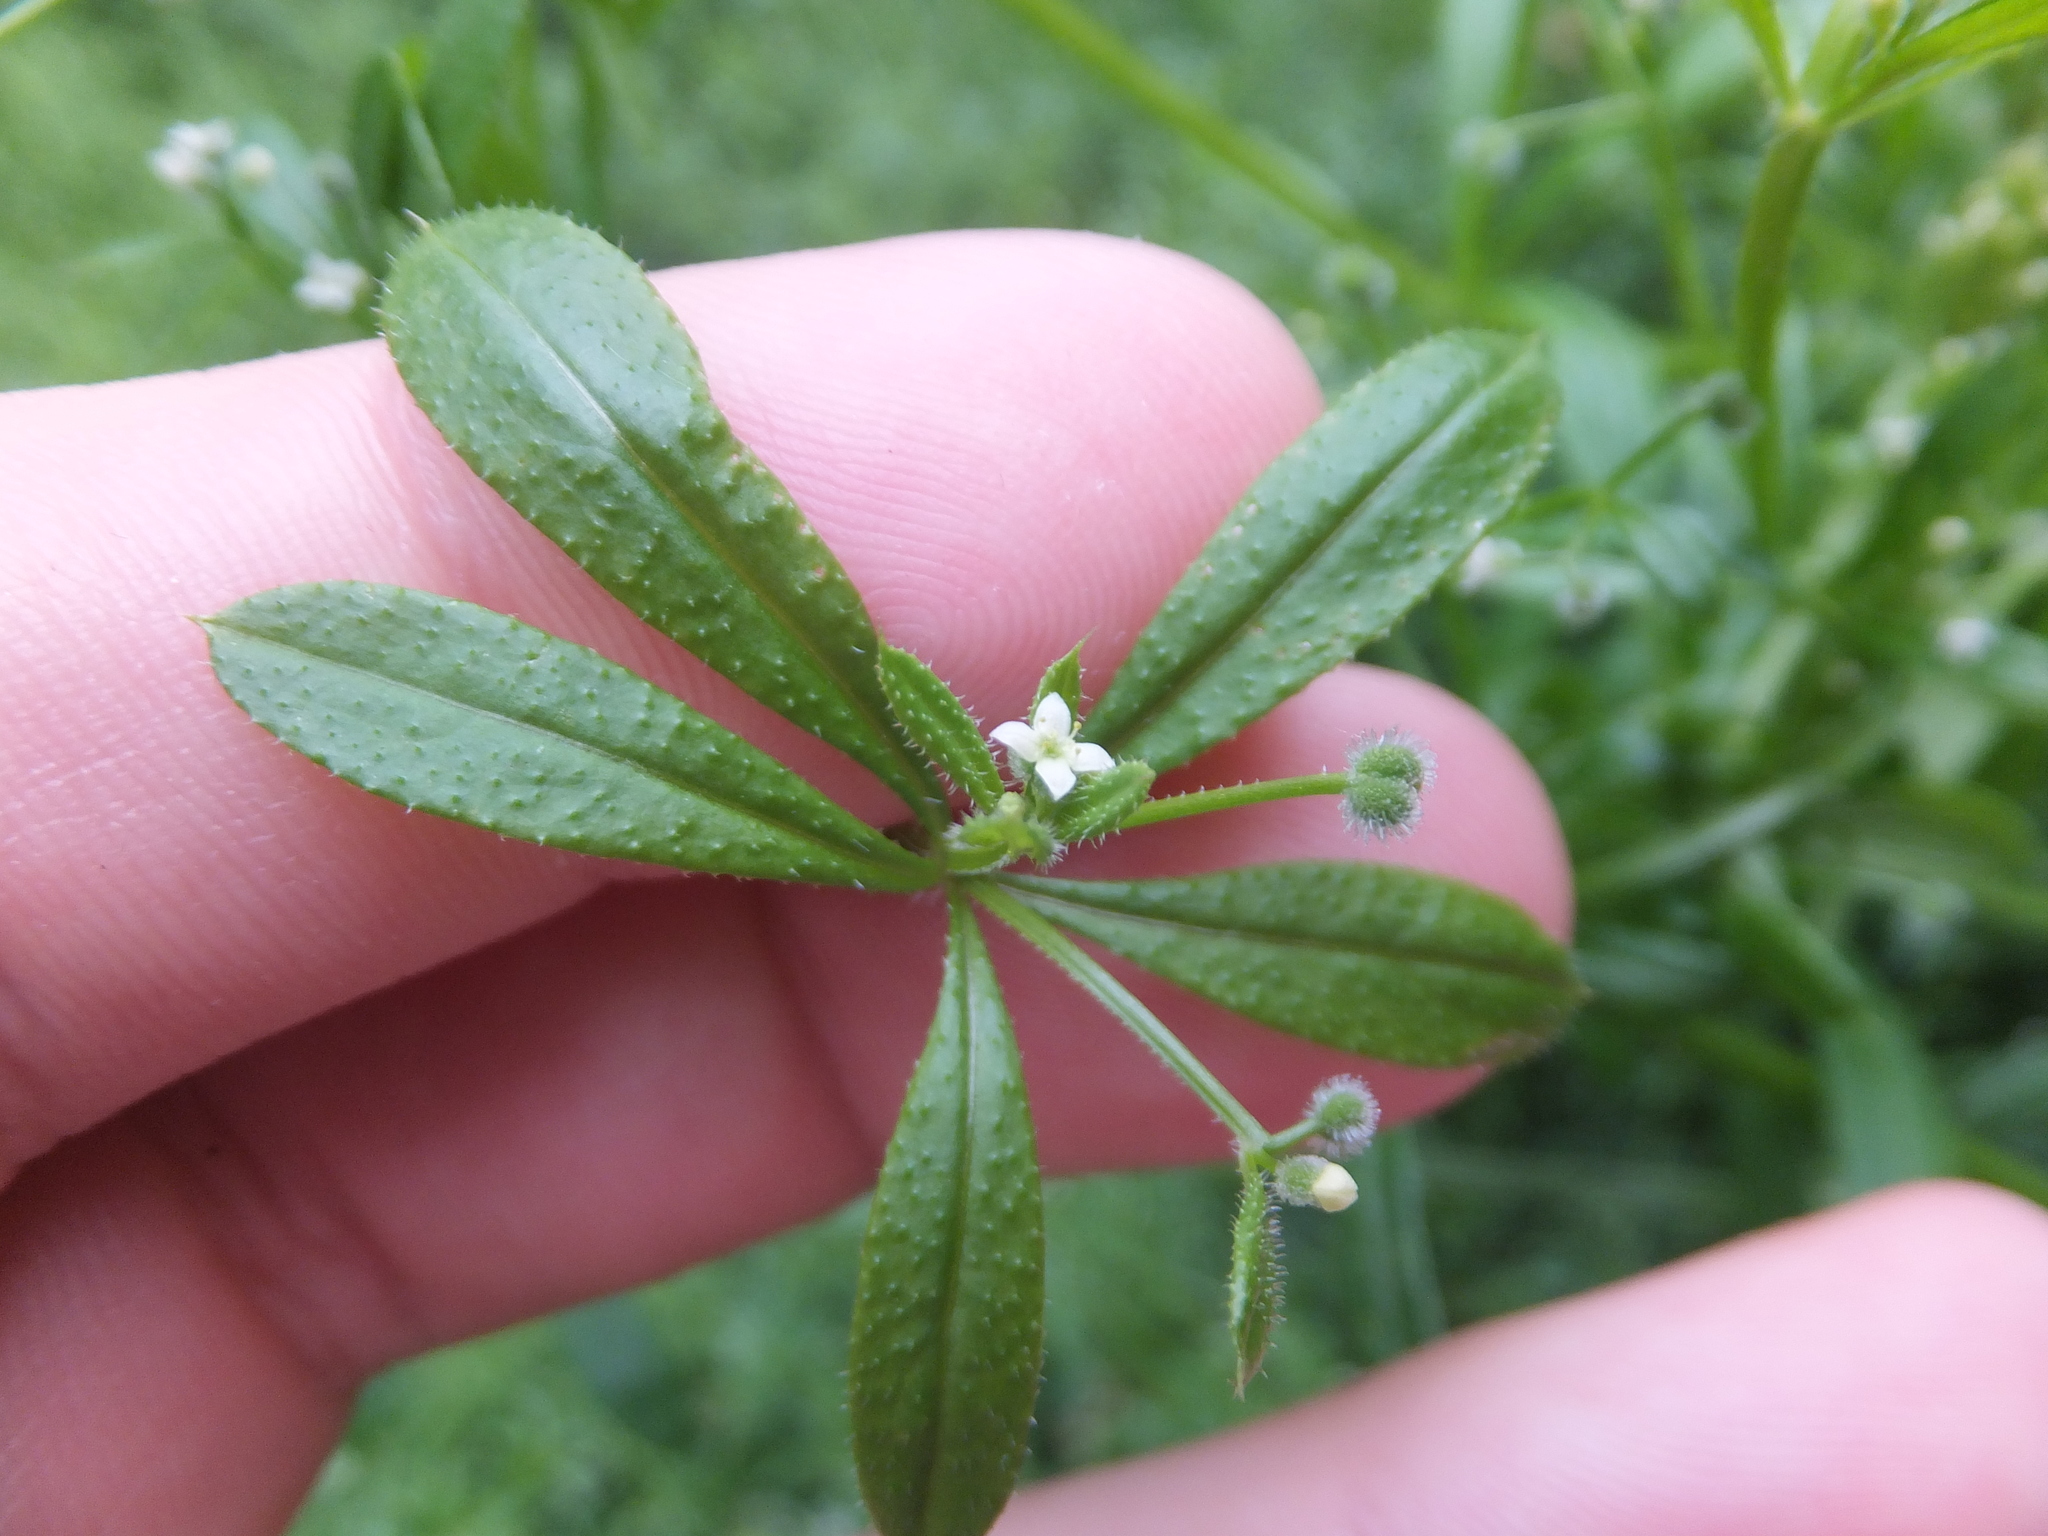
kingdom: Plantae
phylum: Tracheophyta
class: Magnoliopsida
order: Gentianales
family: Rubiaceae
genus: Galium
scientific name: Galium aparine
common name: Cleavers
